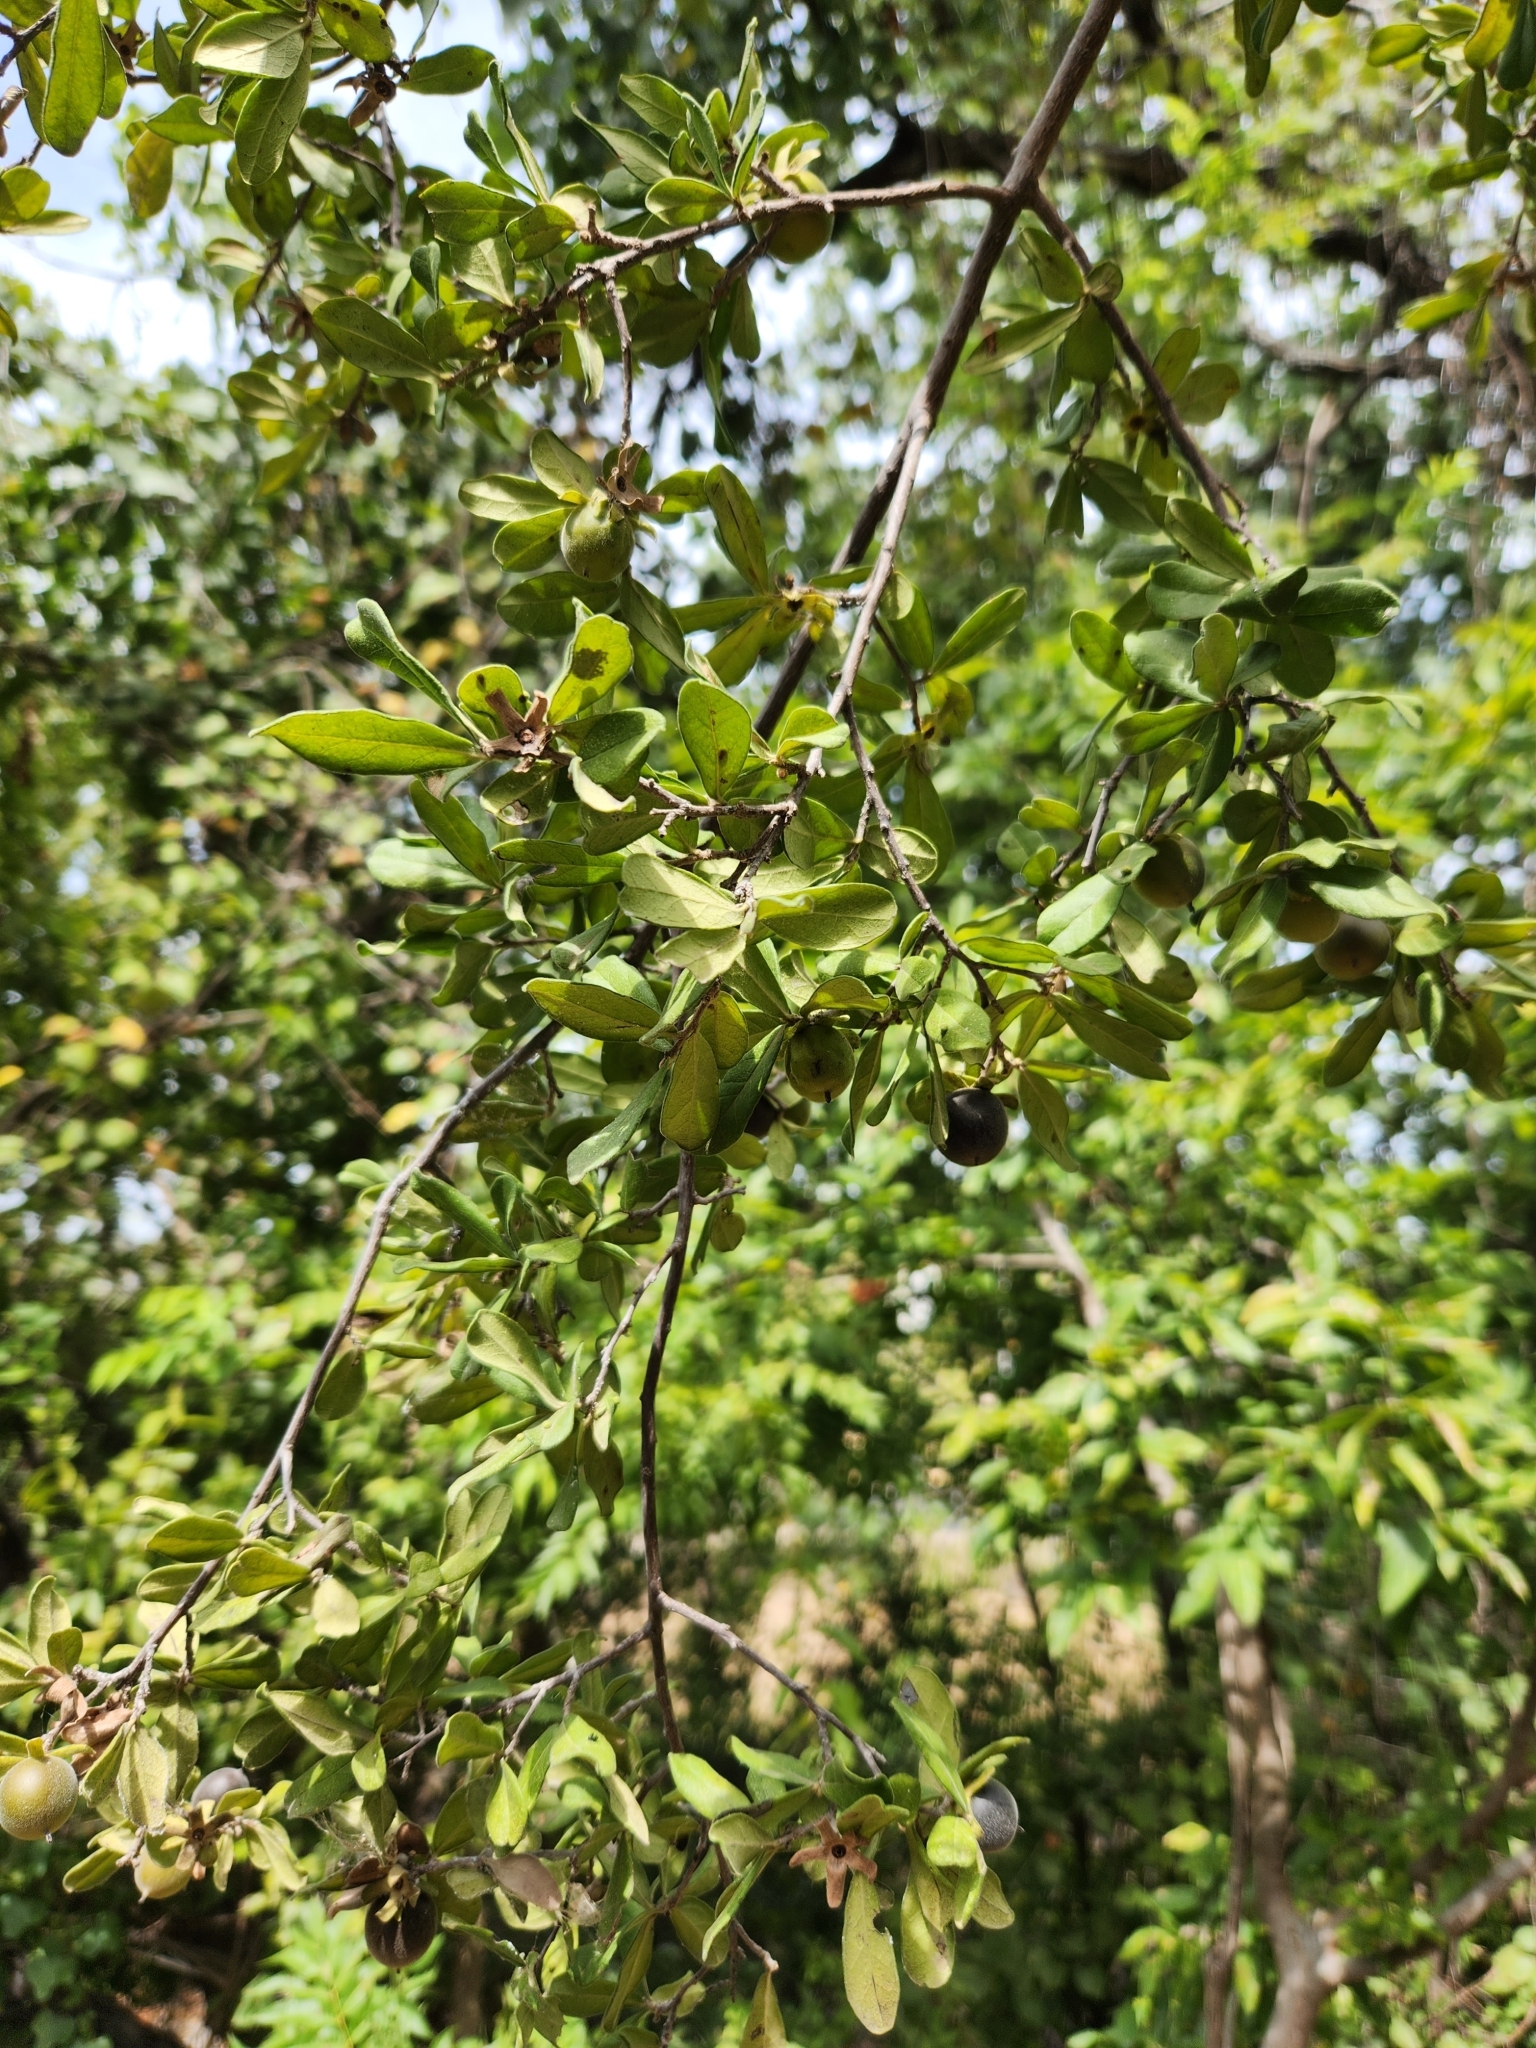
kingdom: Plantae
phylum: Tracheophyta
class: Magnoliopsida
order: Ericales
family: Ebenaceae
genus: Diospyros
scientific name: Diospyros texana
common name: Texas persimmon
